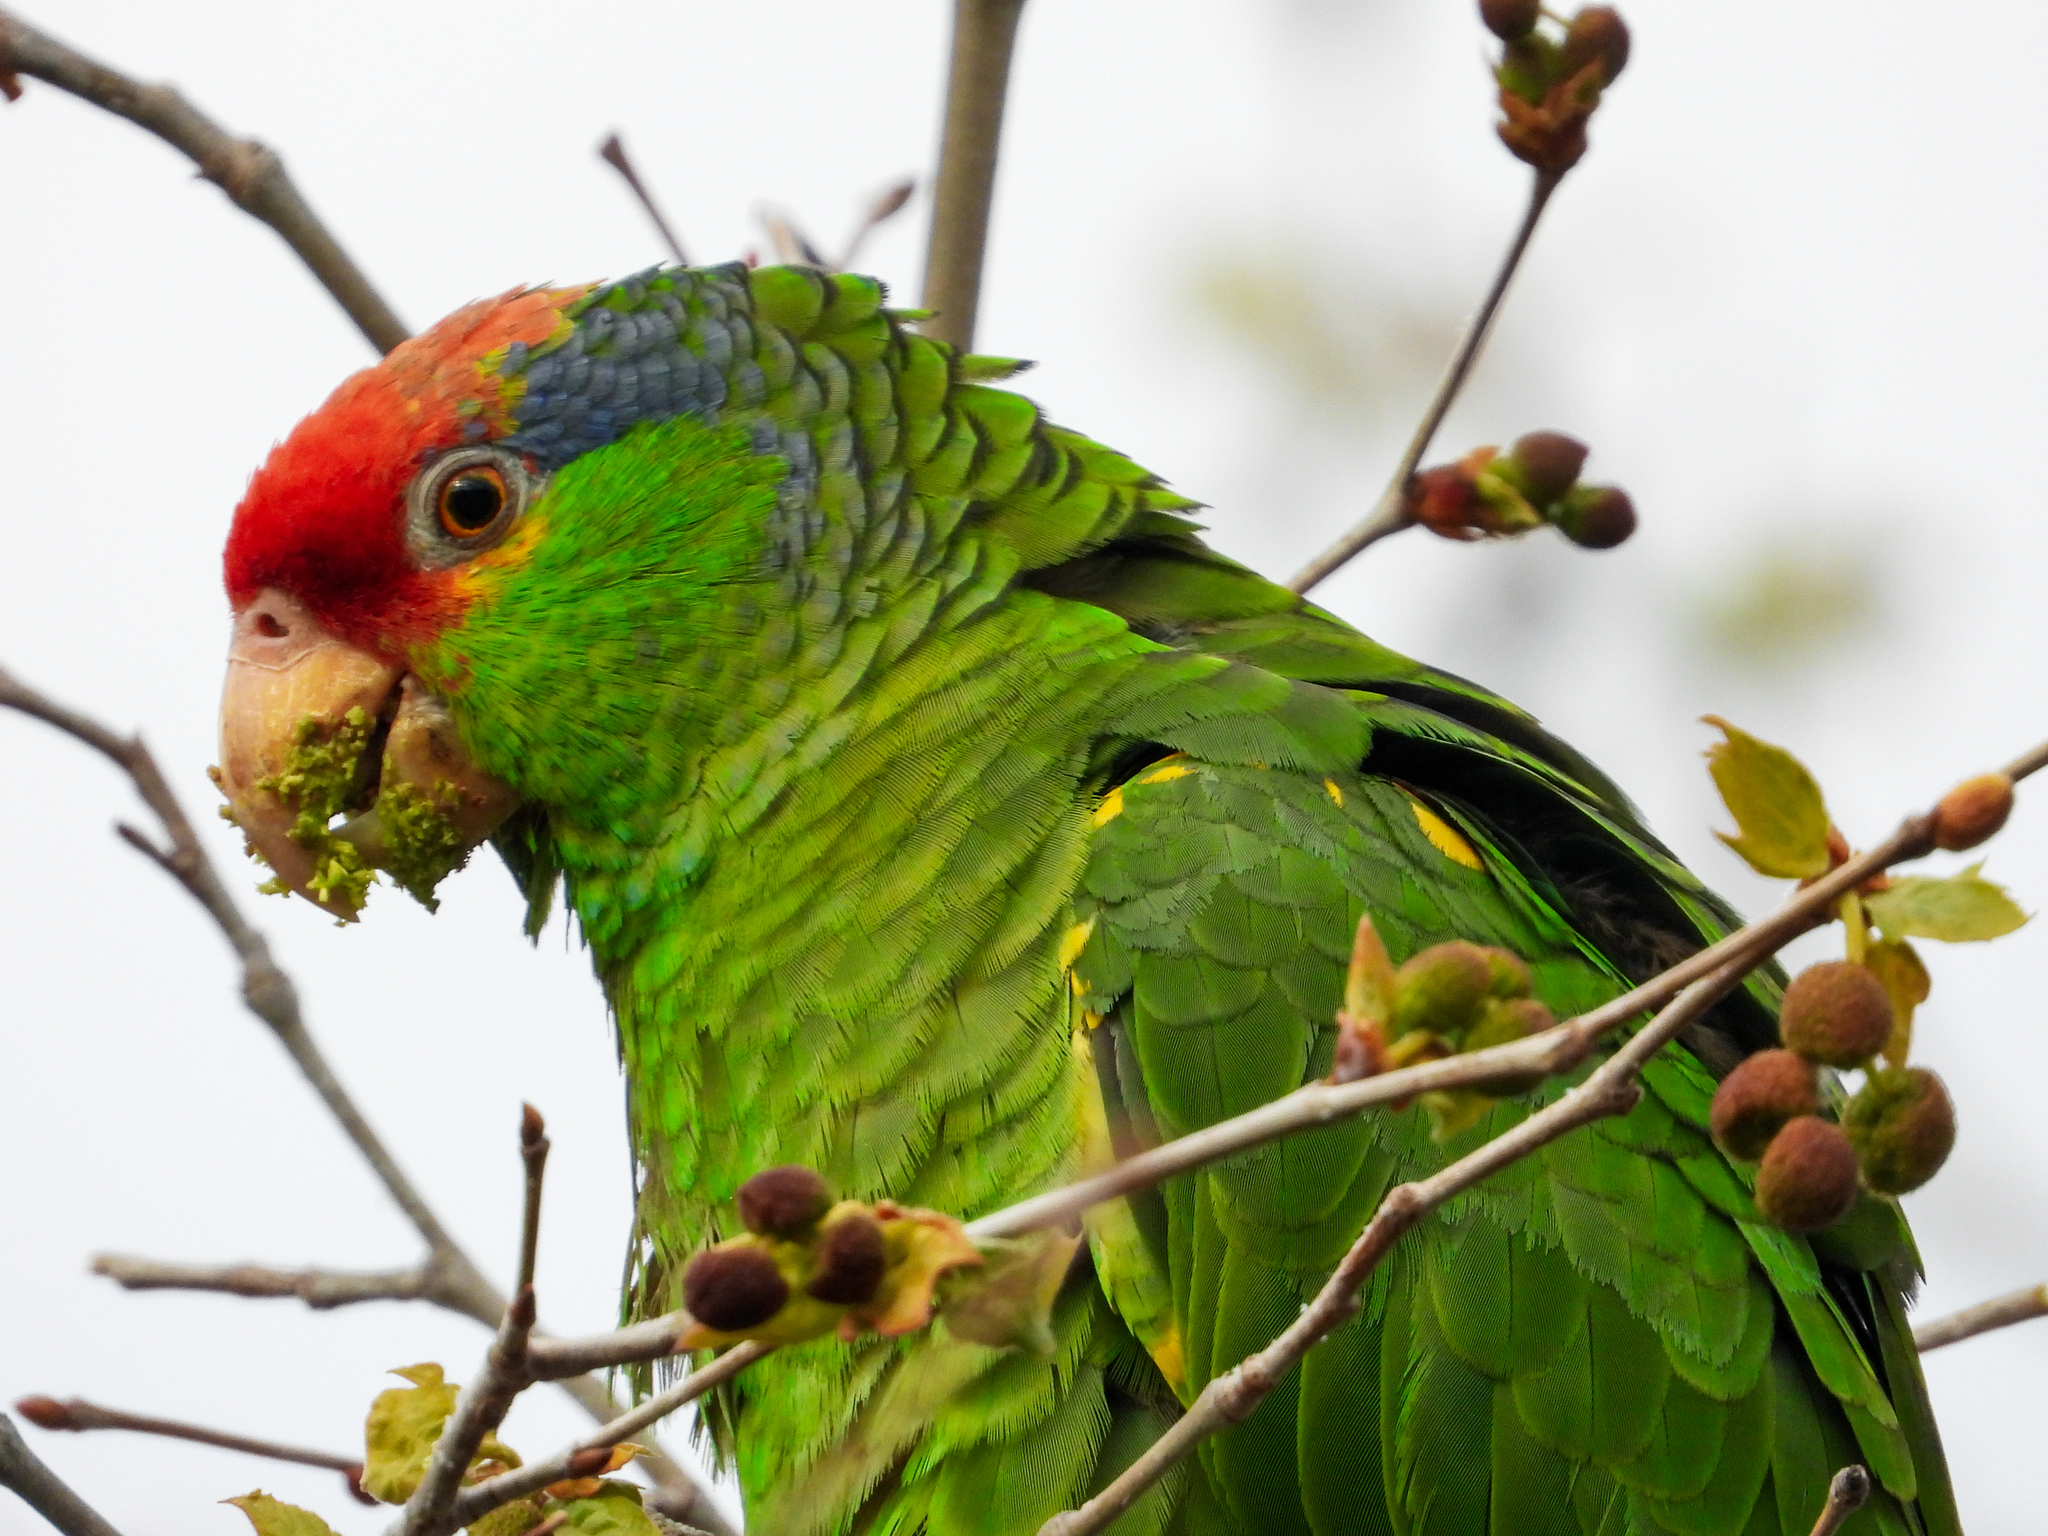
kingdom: Animalia
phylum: Chordata
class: Aves
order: Psittaciformes
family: Psittacidae
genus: Amazona
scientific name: Amazona viridigenalis
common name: Red-crowned amazon
